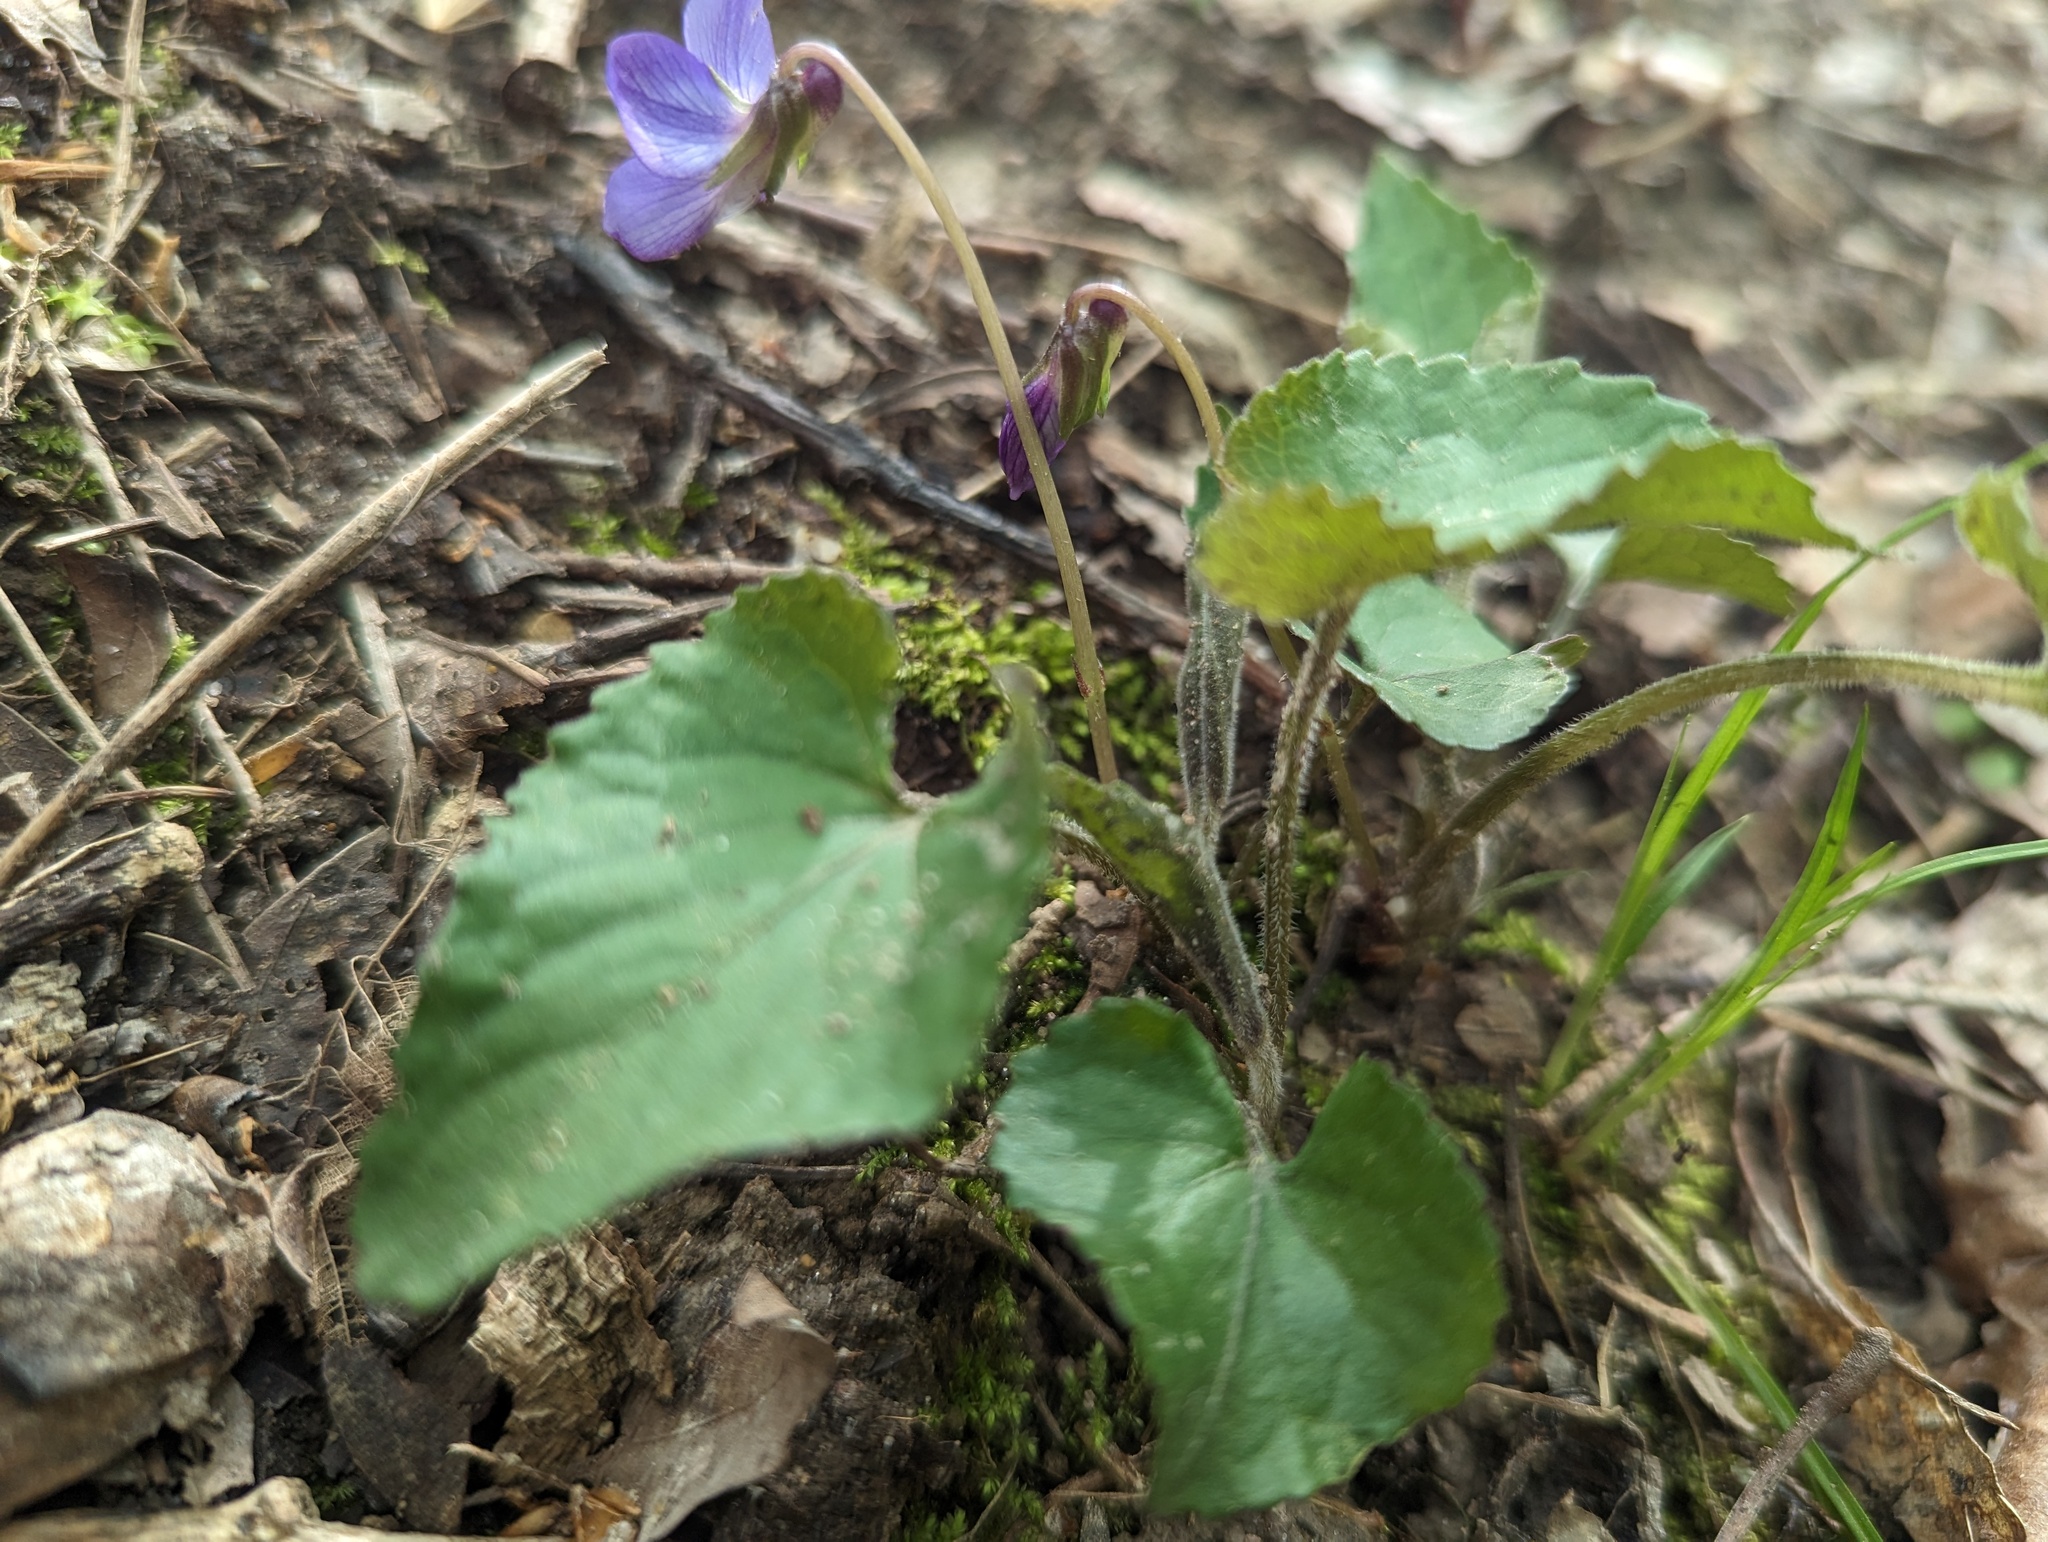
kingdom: Plantae
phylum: Tracheophyta
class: Magnoliopsida
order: Malpighiales
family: Violaceae
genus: Viola
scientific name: Viola sororia
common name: Dooryard violet
